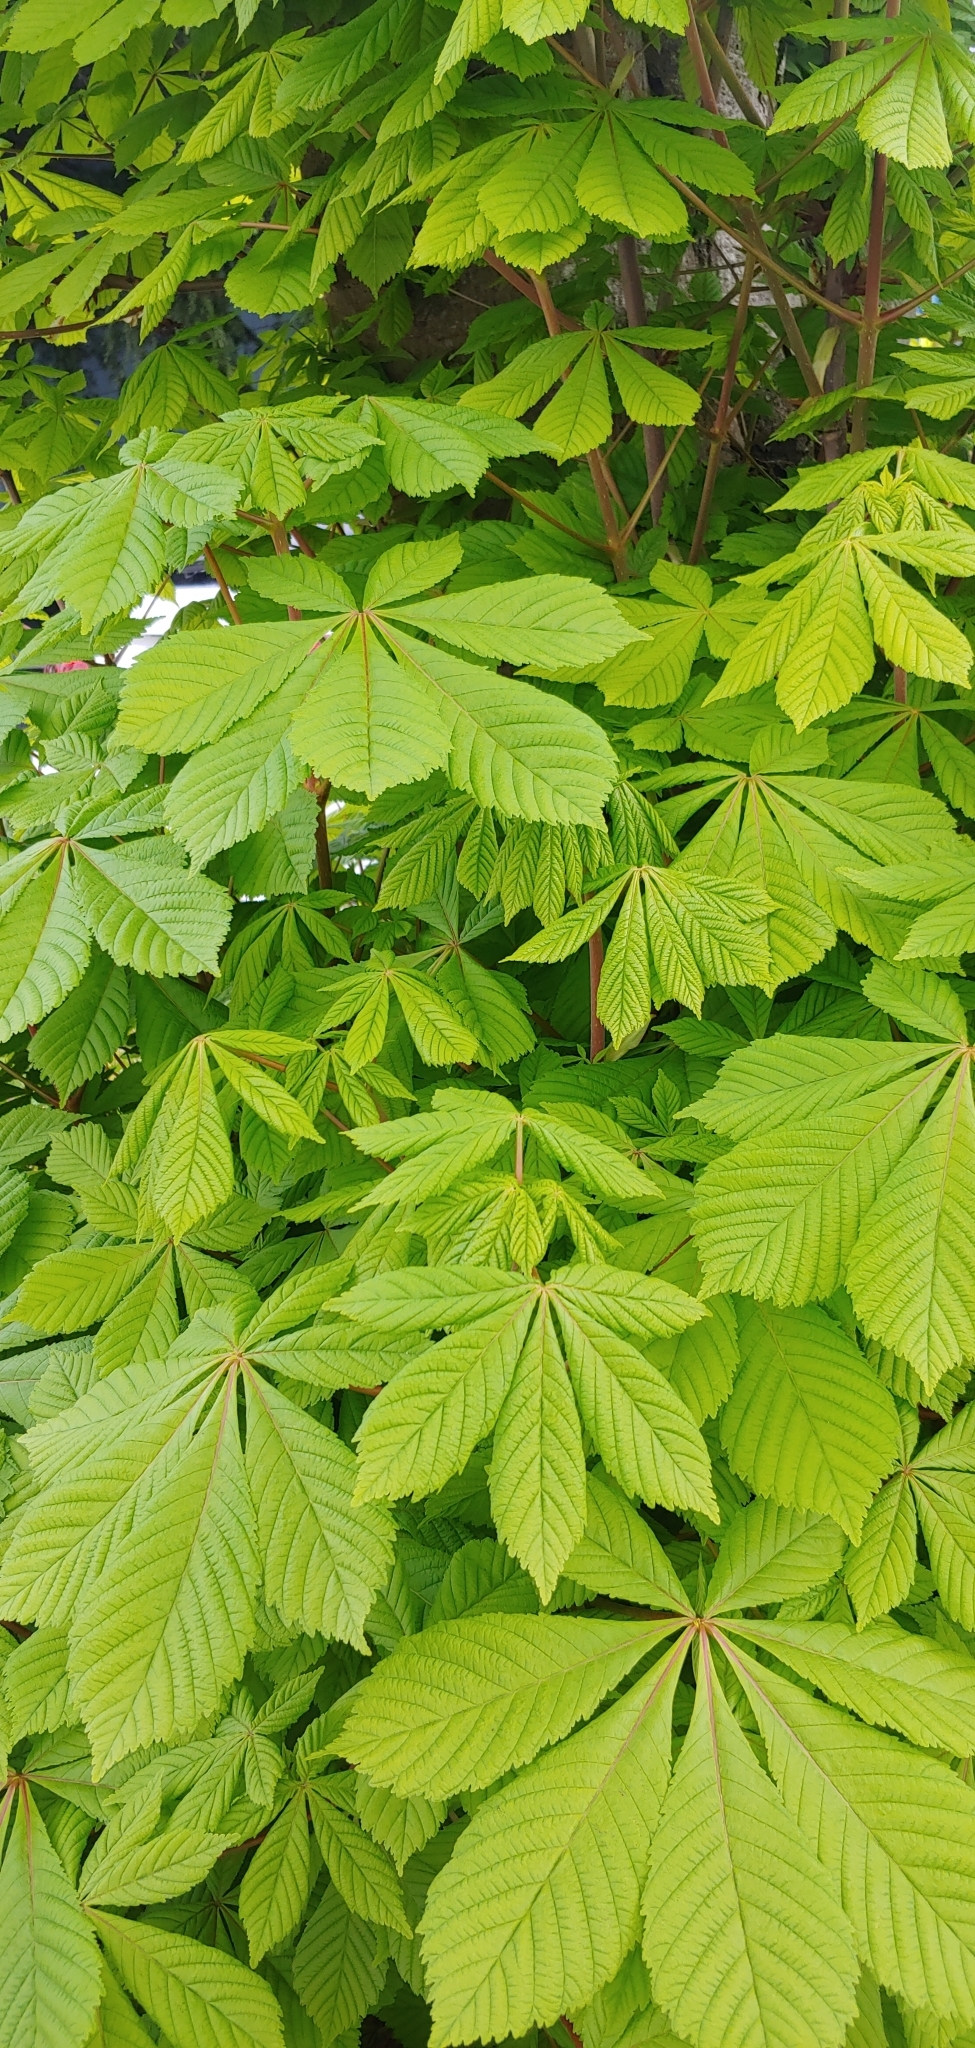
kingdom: Plantae
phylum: Tracheophyta
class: Magnoliopsida
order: Sapindales
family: Sapindaceae
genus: Aesculus
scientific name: Aesculus hippocastanum
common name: Horse-chestnut
